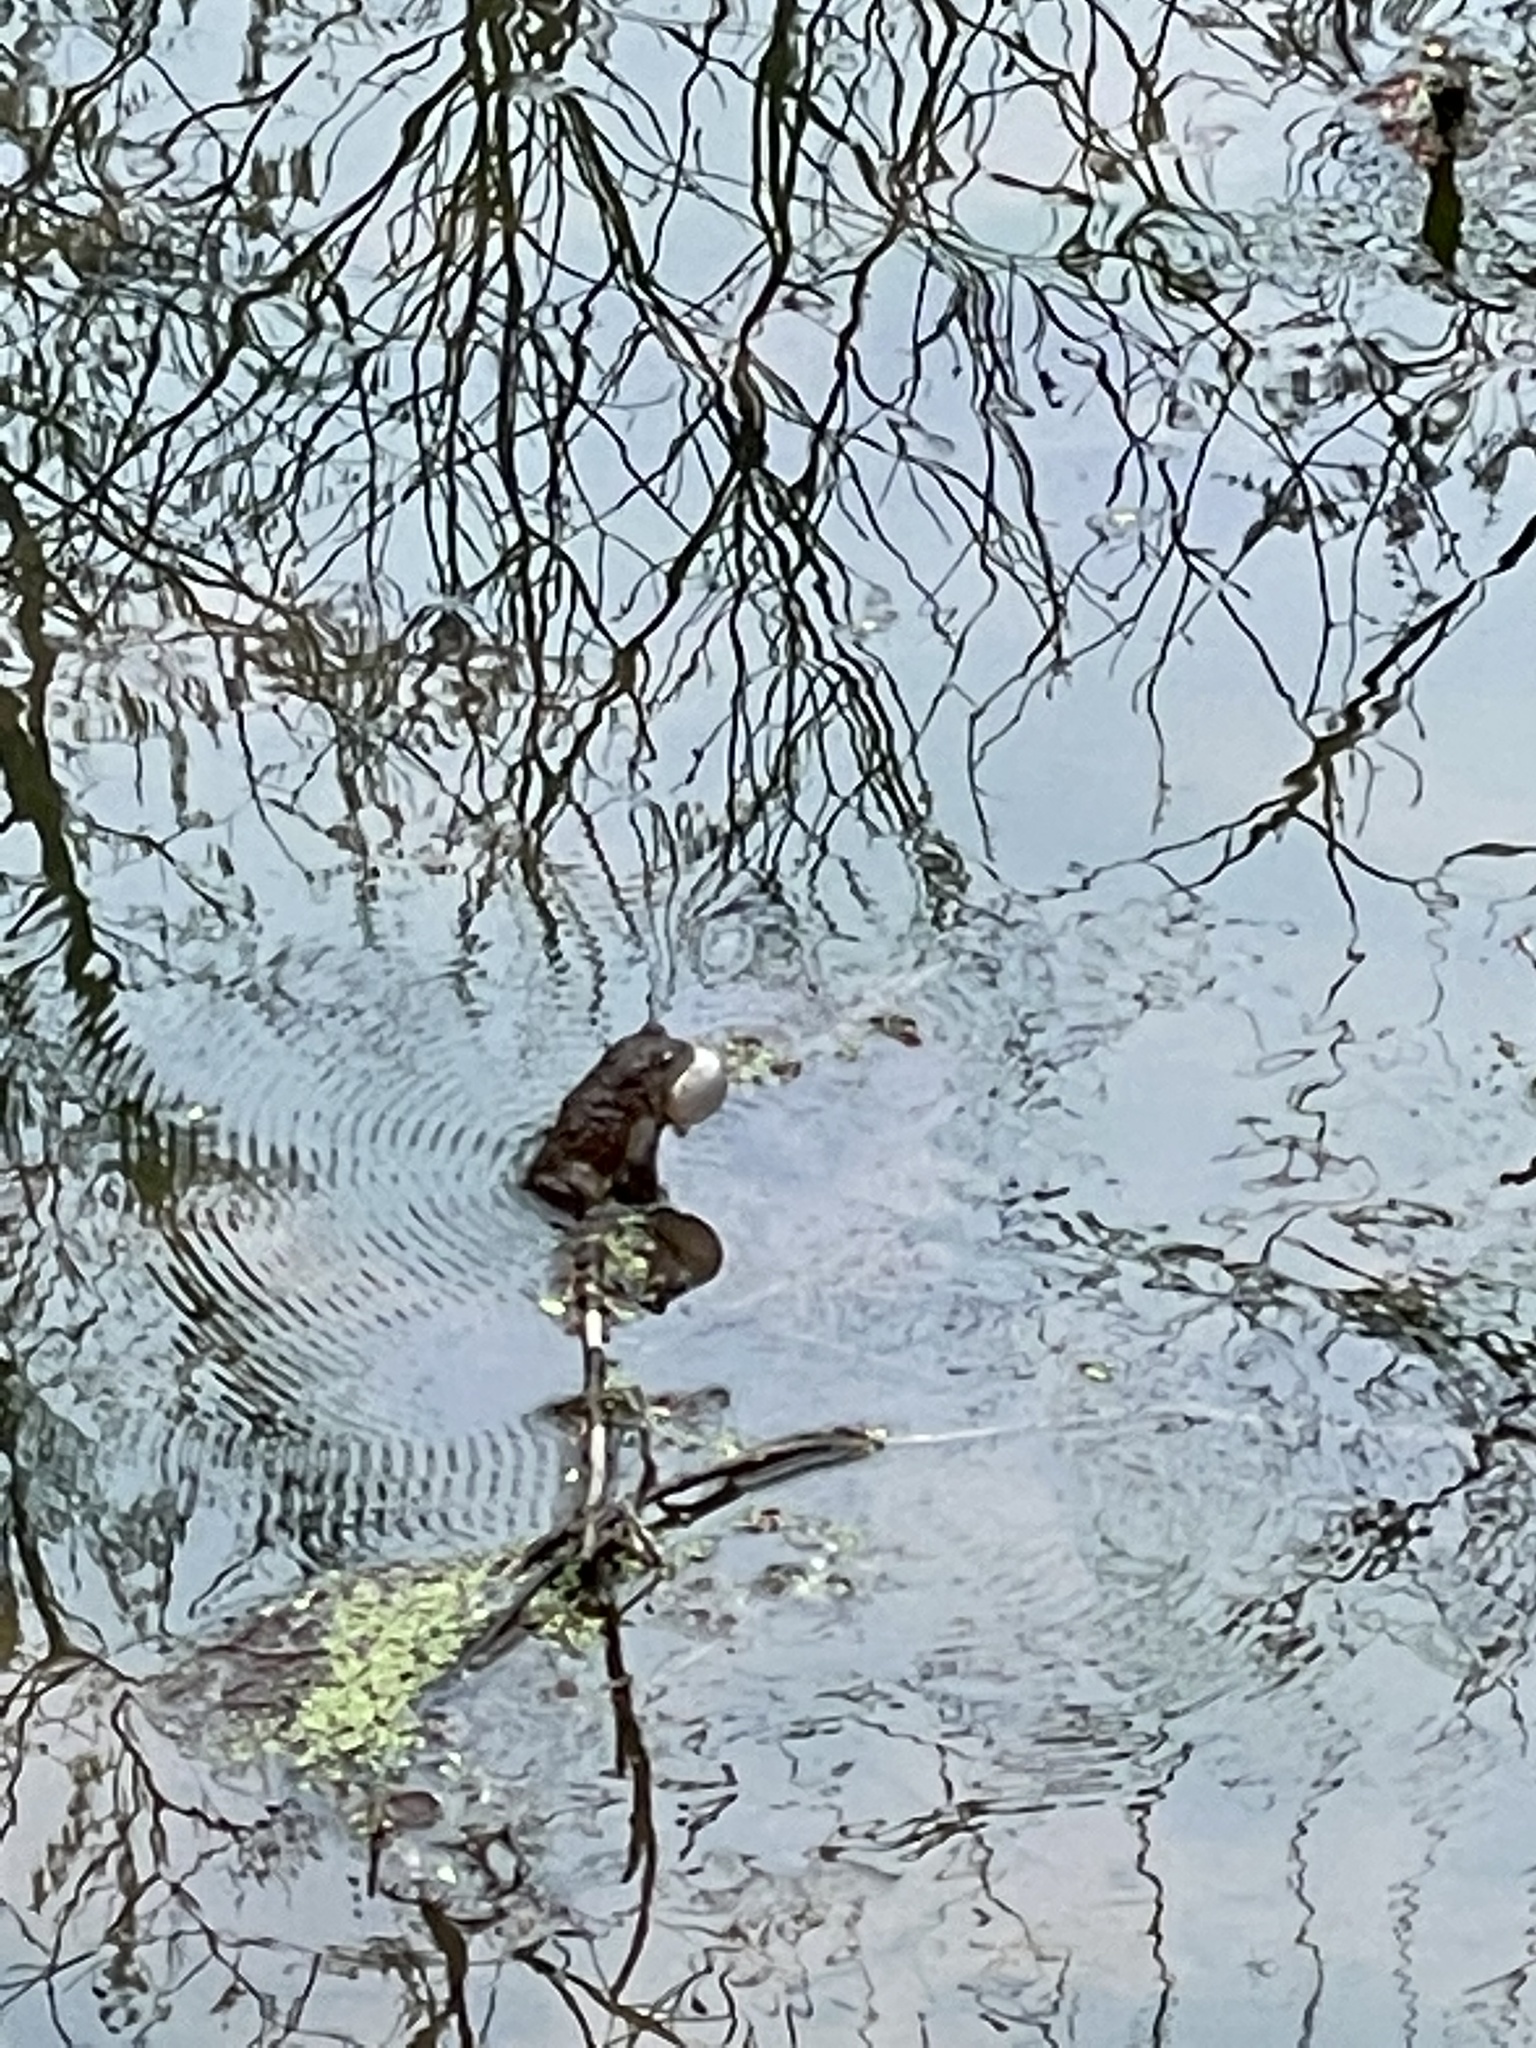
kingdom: Animalia
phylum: Chordata
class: Amphibia
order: Anura
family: Bufonidae
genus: Anaxyrus
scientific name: Anaxyrus americanus
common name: American toad
